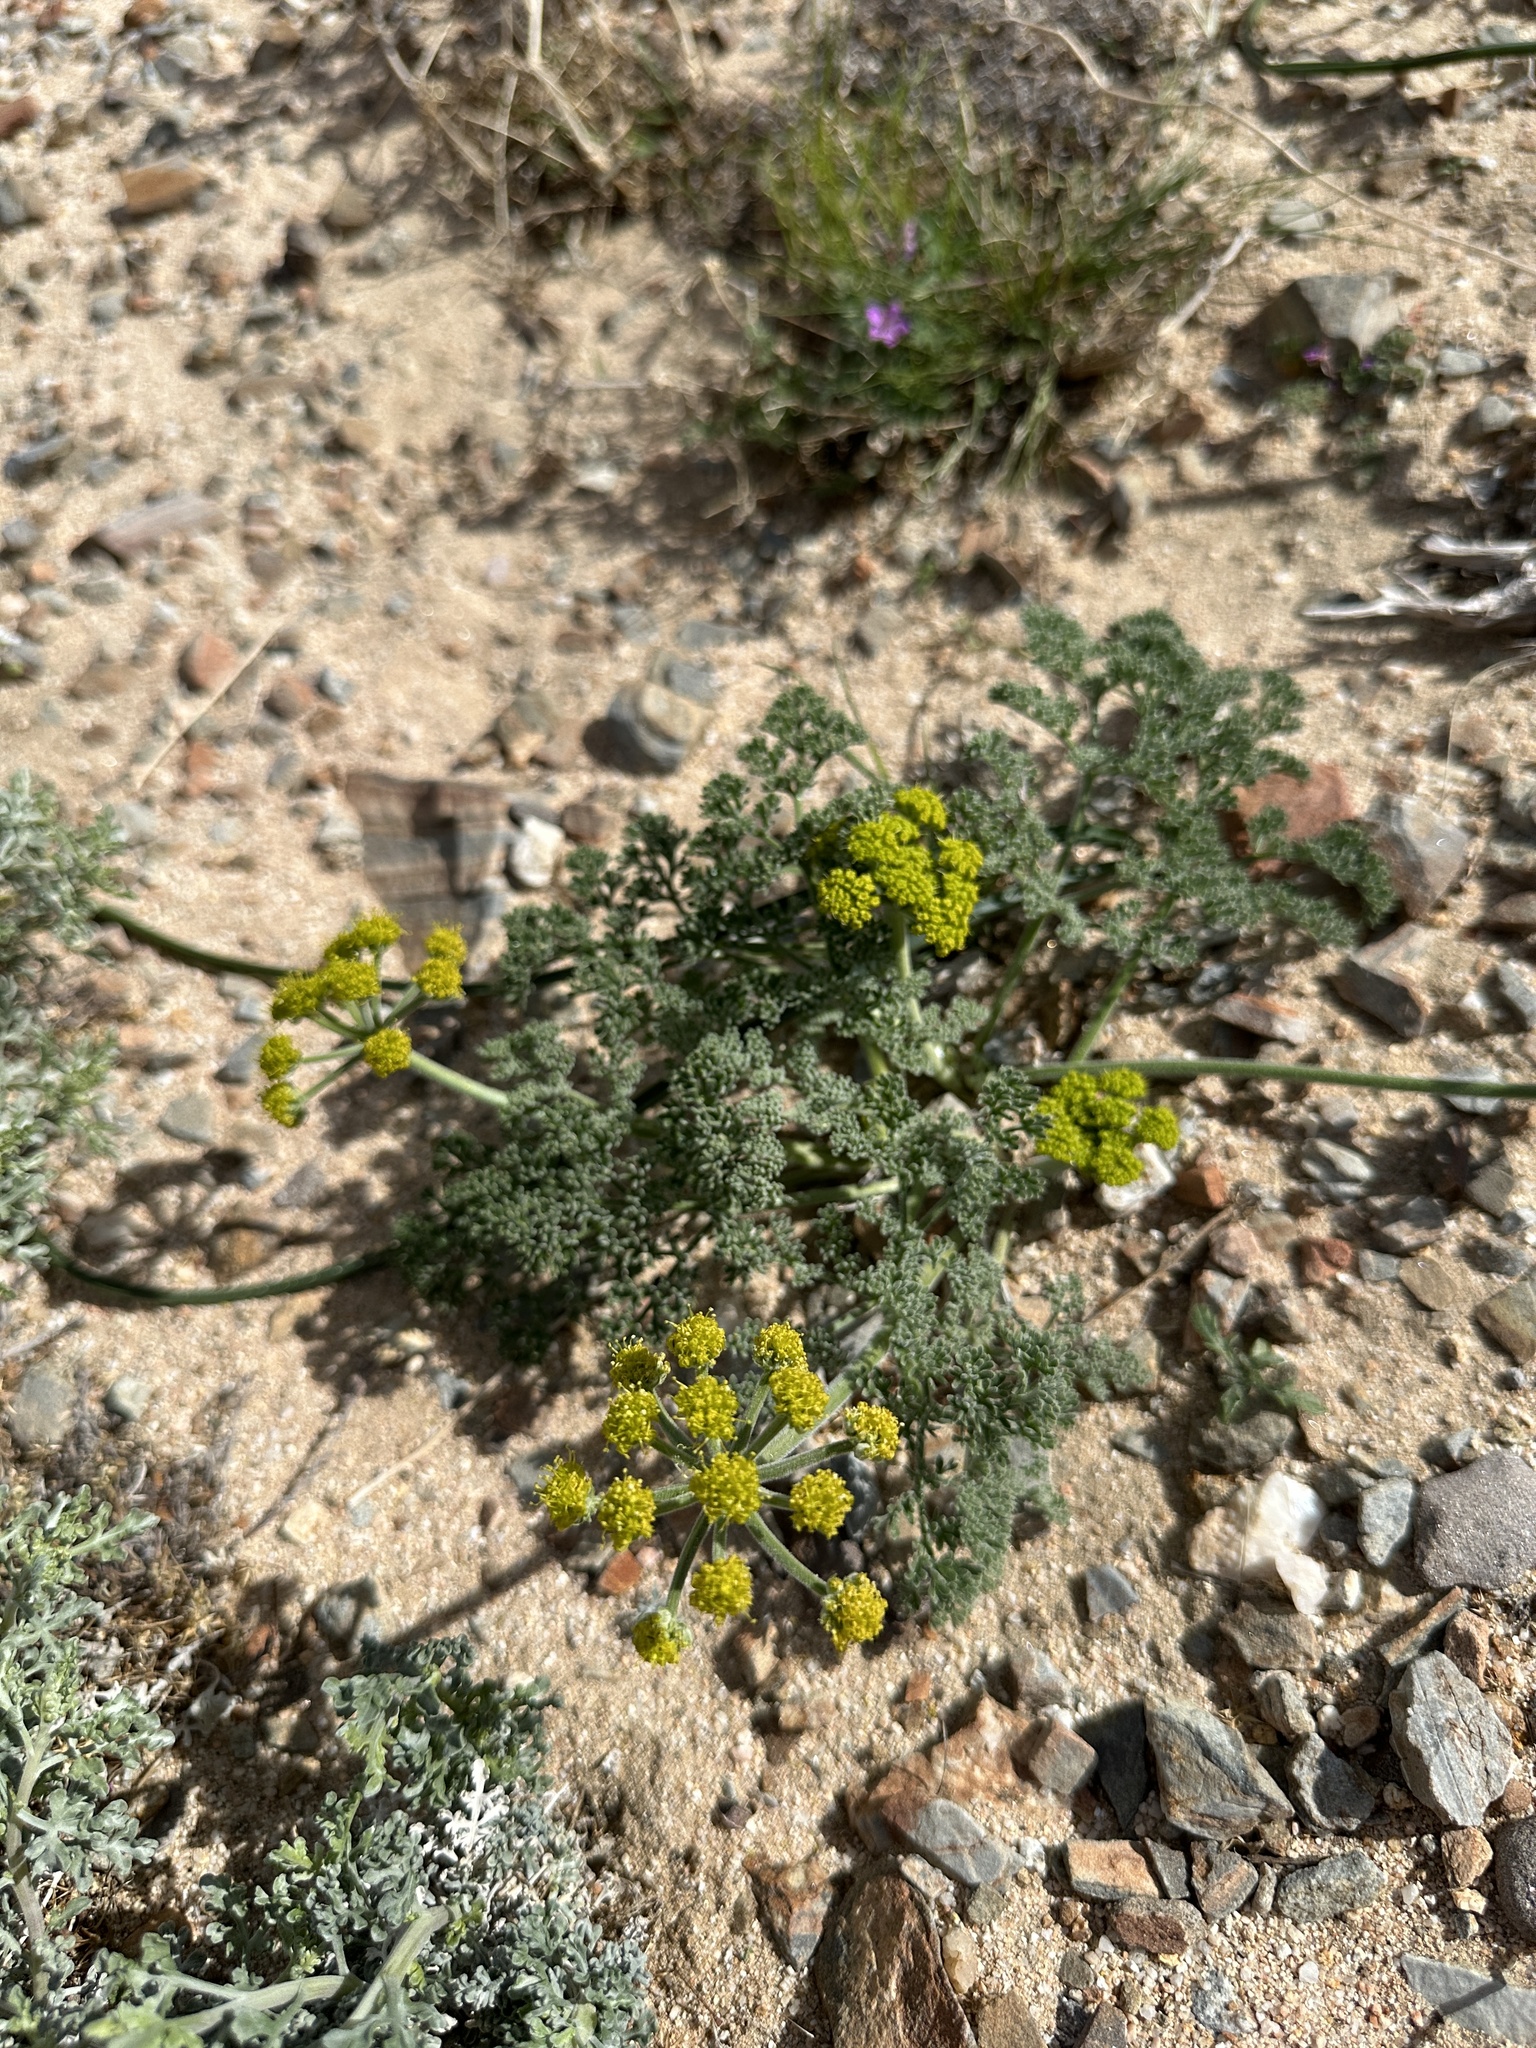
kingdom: Plantae
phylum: Tracheophyta
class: Magnoliopsida
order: Apiales
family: Apiaceae
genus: Lomatium
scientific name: Lomatium mohavense
